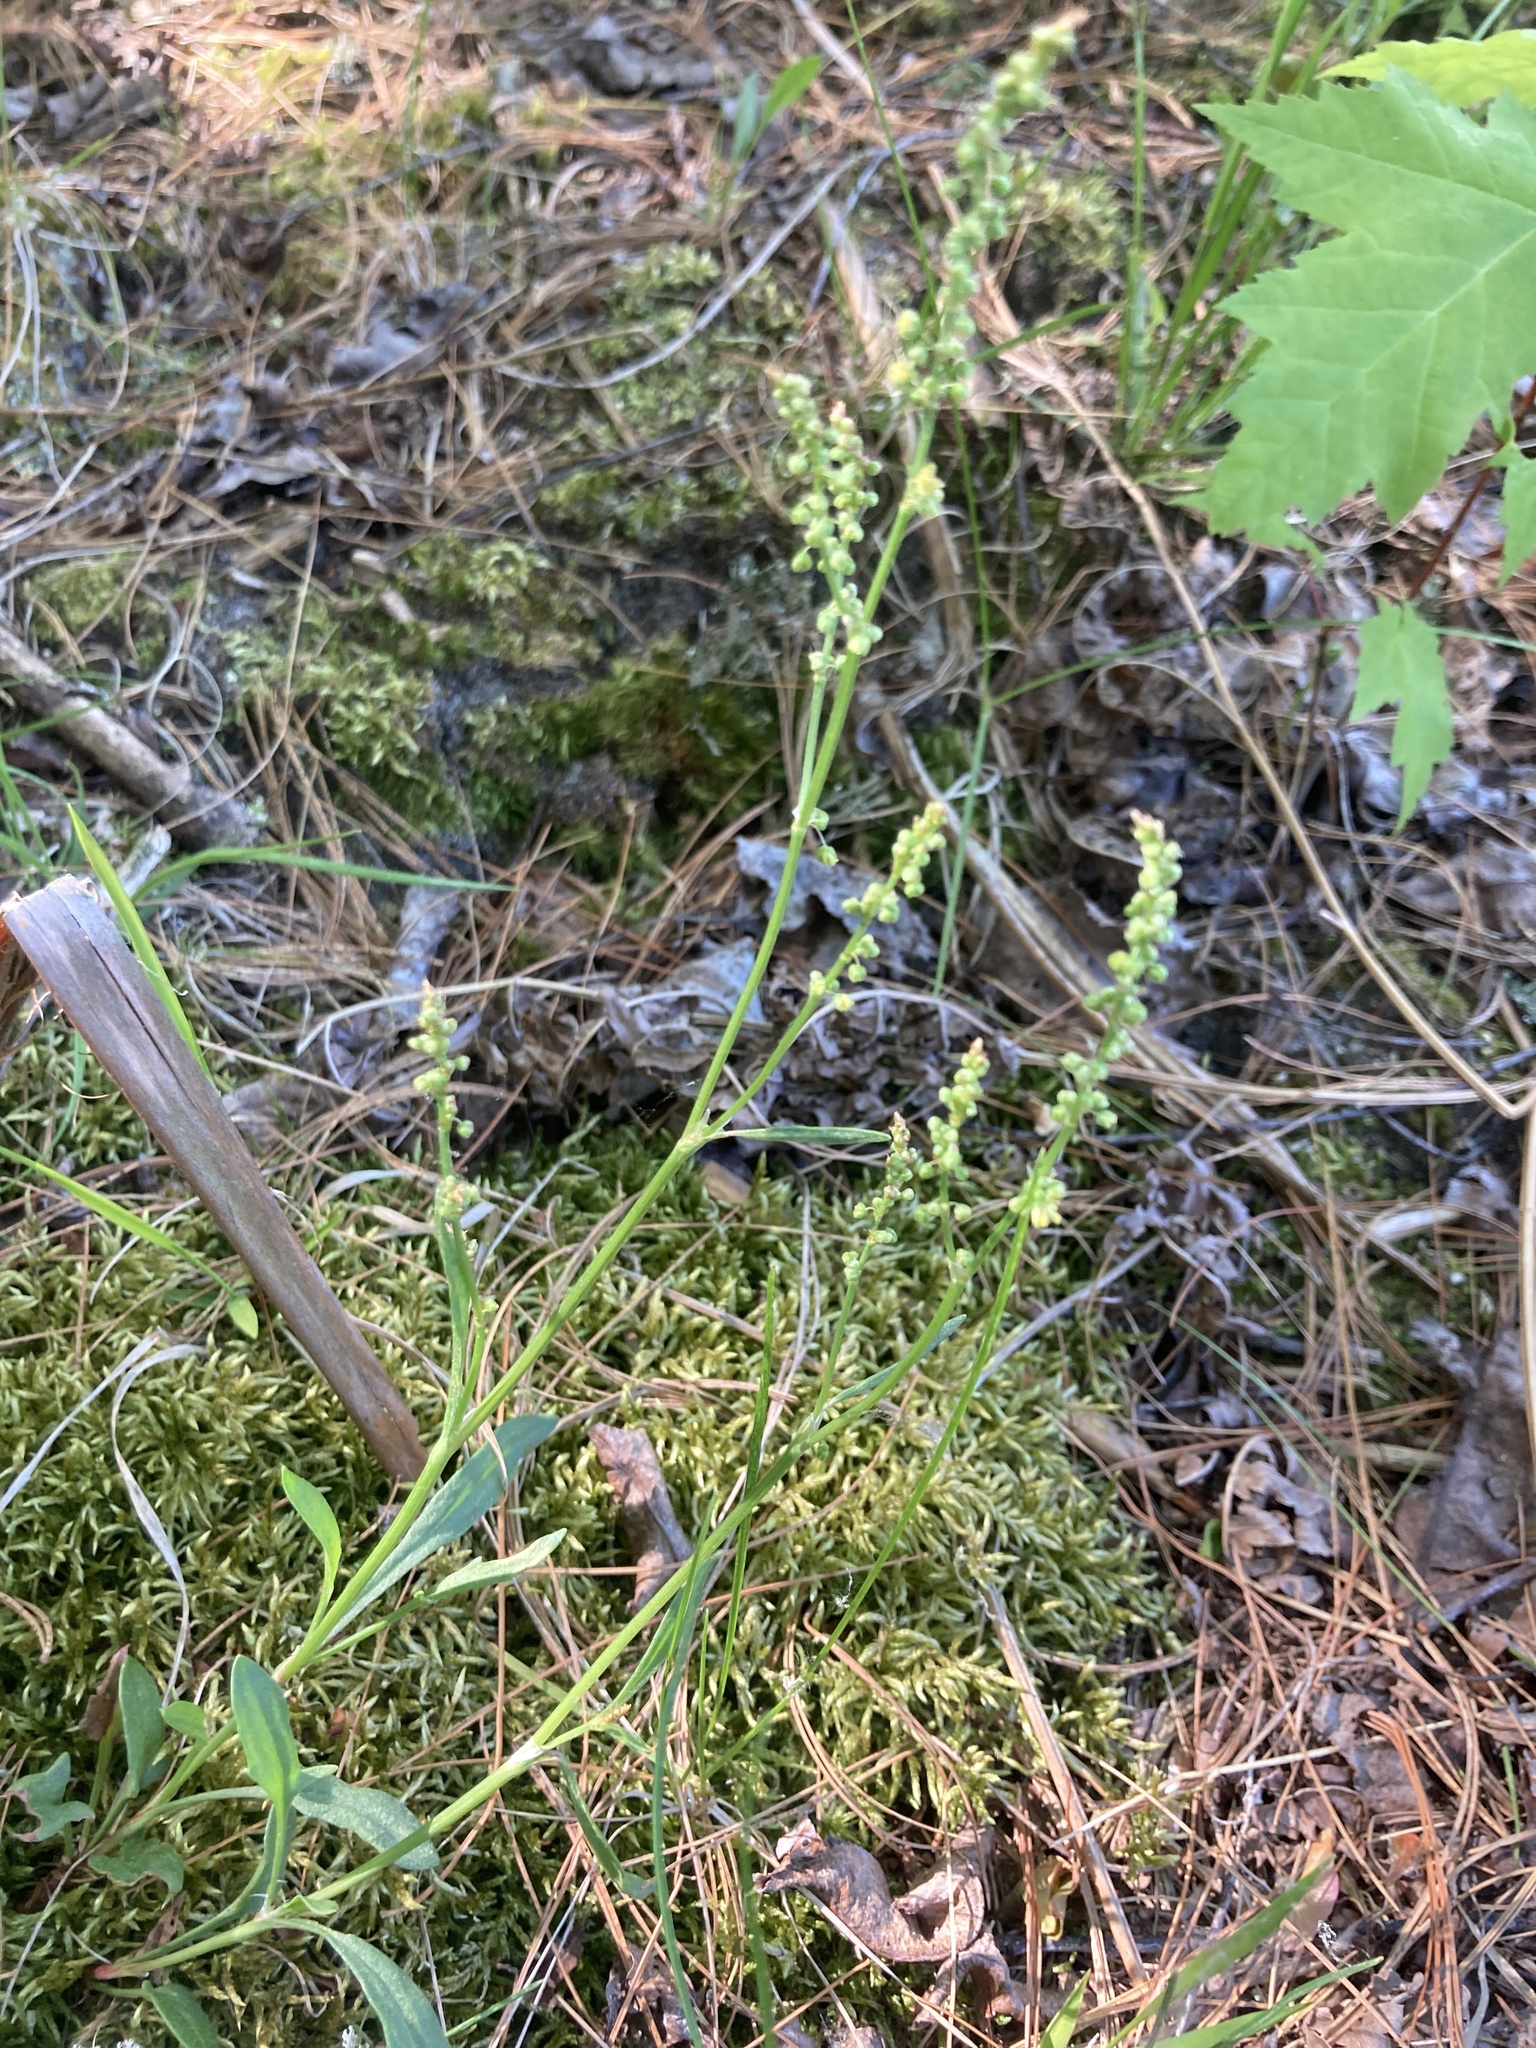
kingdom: Plantae
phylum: Tracheophyta
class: Magnoliopsida
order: Caryophyllales
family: Polygonaceae
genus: Rumex
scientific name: Rumex acetosella
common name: Common sheep sorrel
